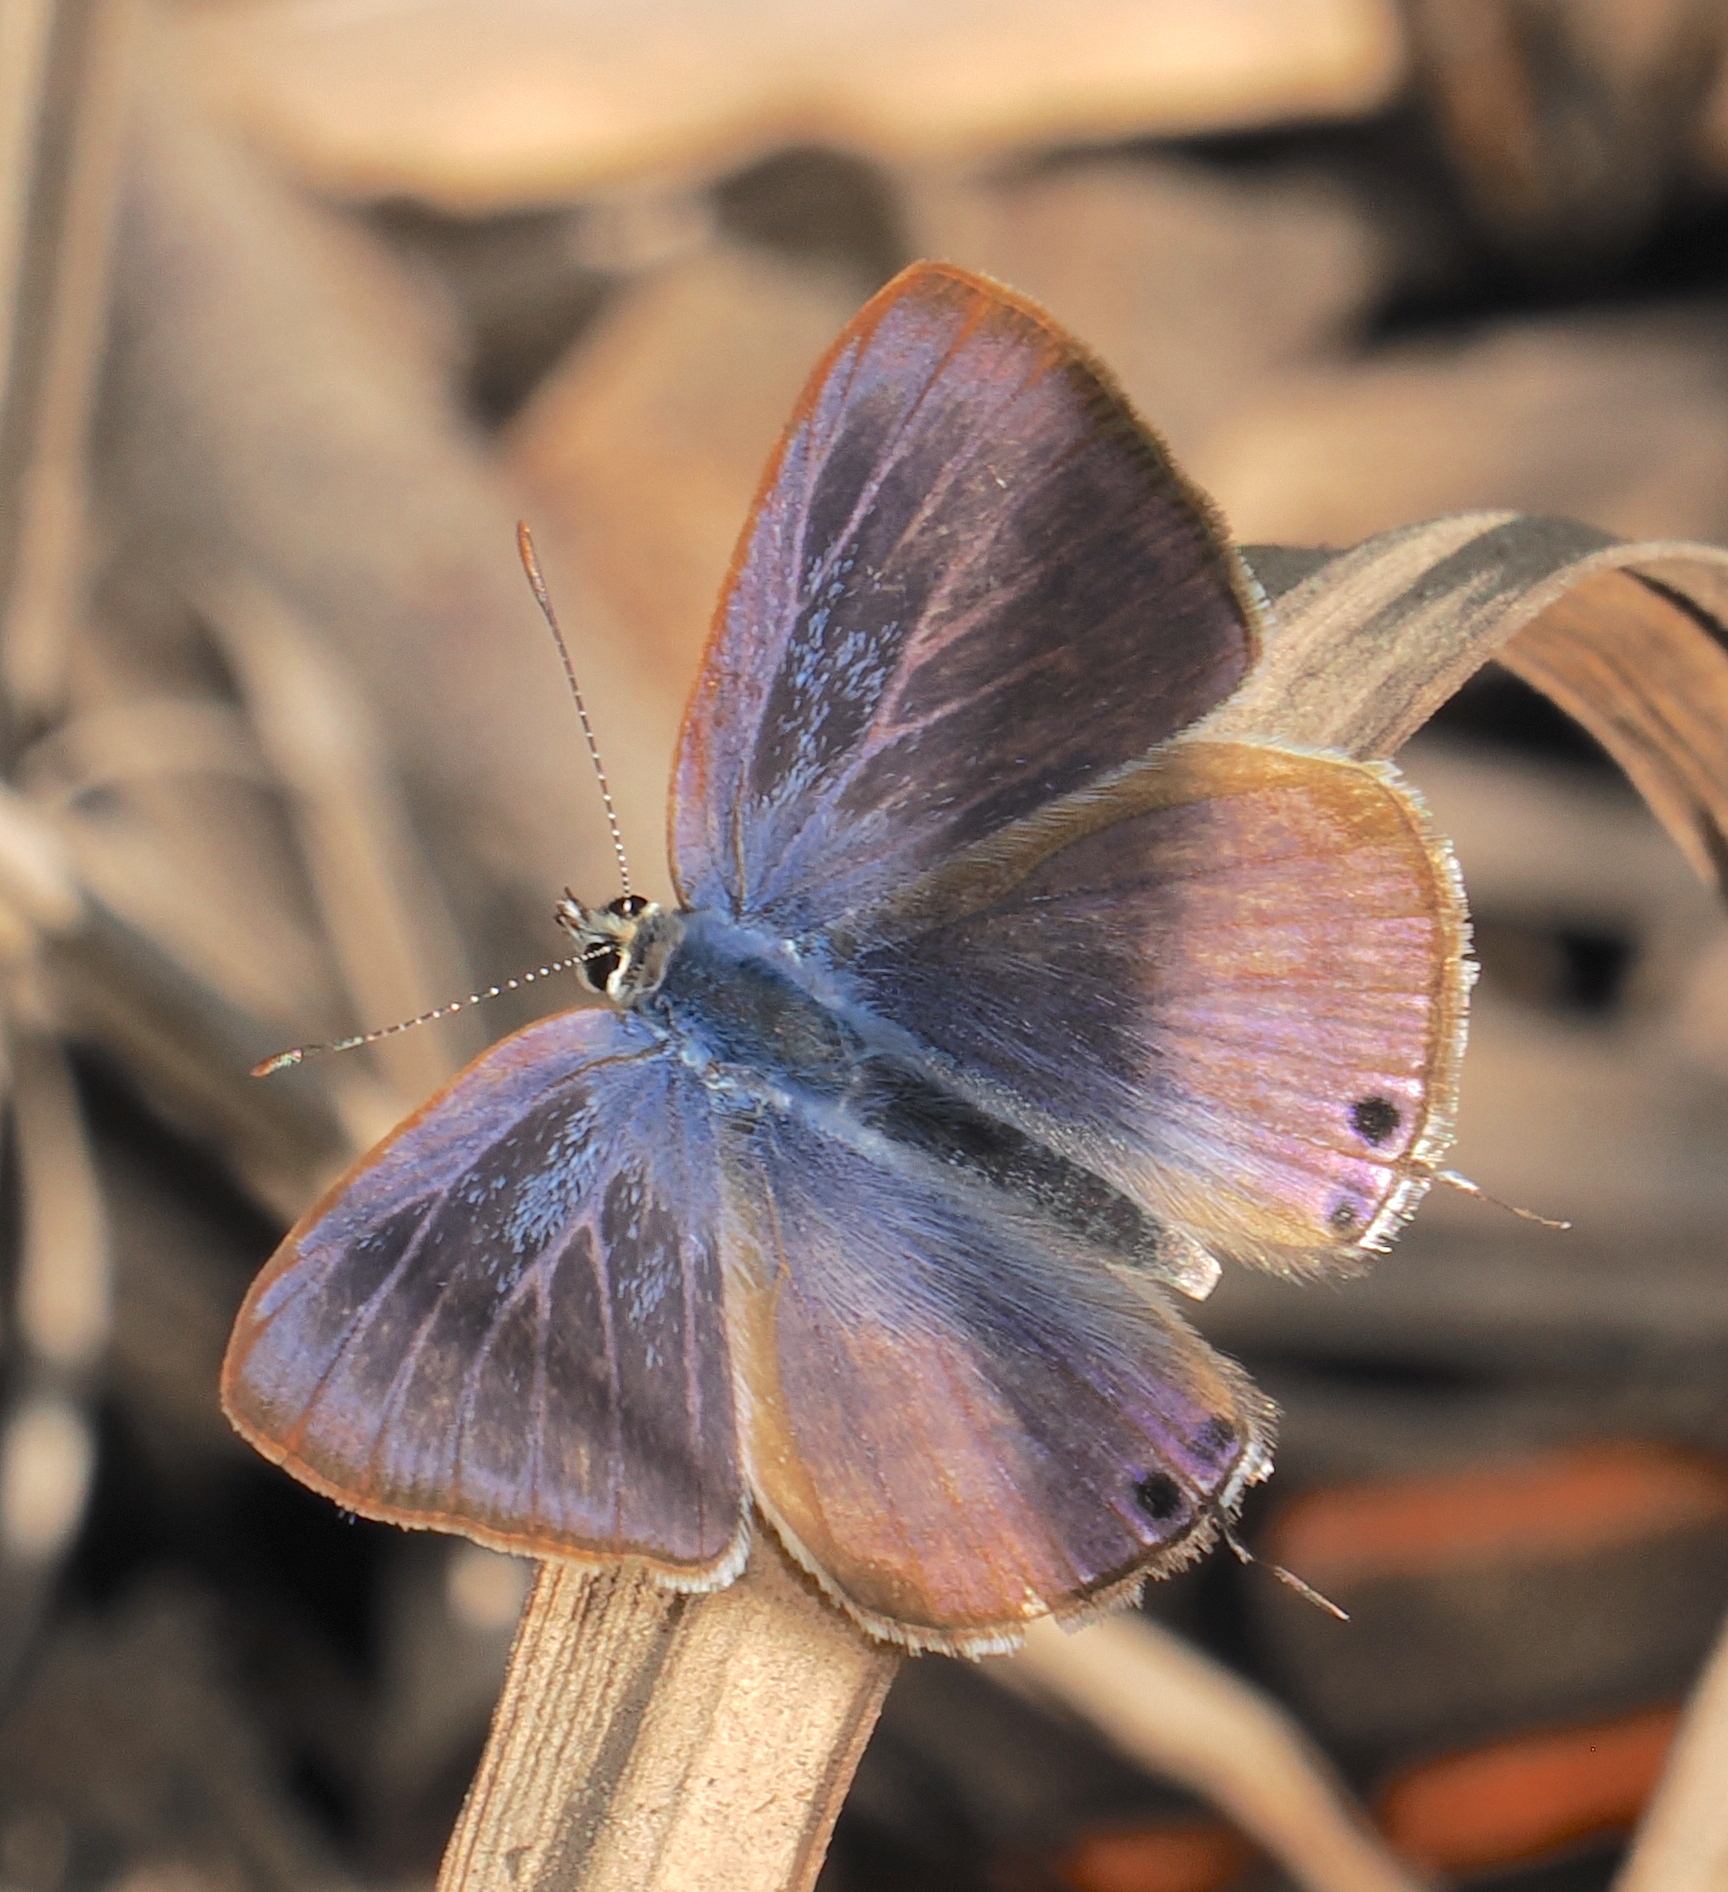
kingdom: Animalia
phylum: Arthropoda
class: Insecta
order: Lepidoptera
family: Lycaenidae
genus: Lampides
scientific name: Lampides boeticus
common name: Long-tailed blue
